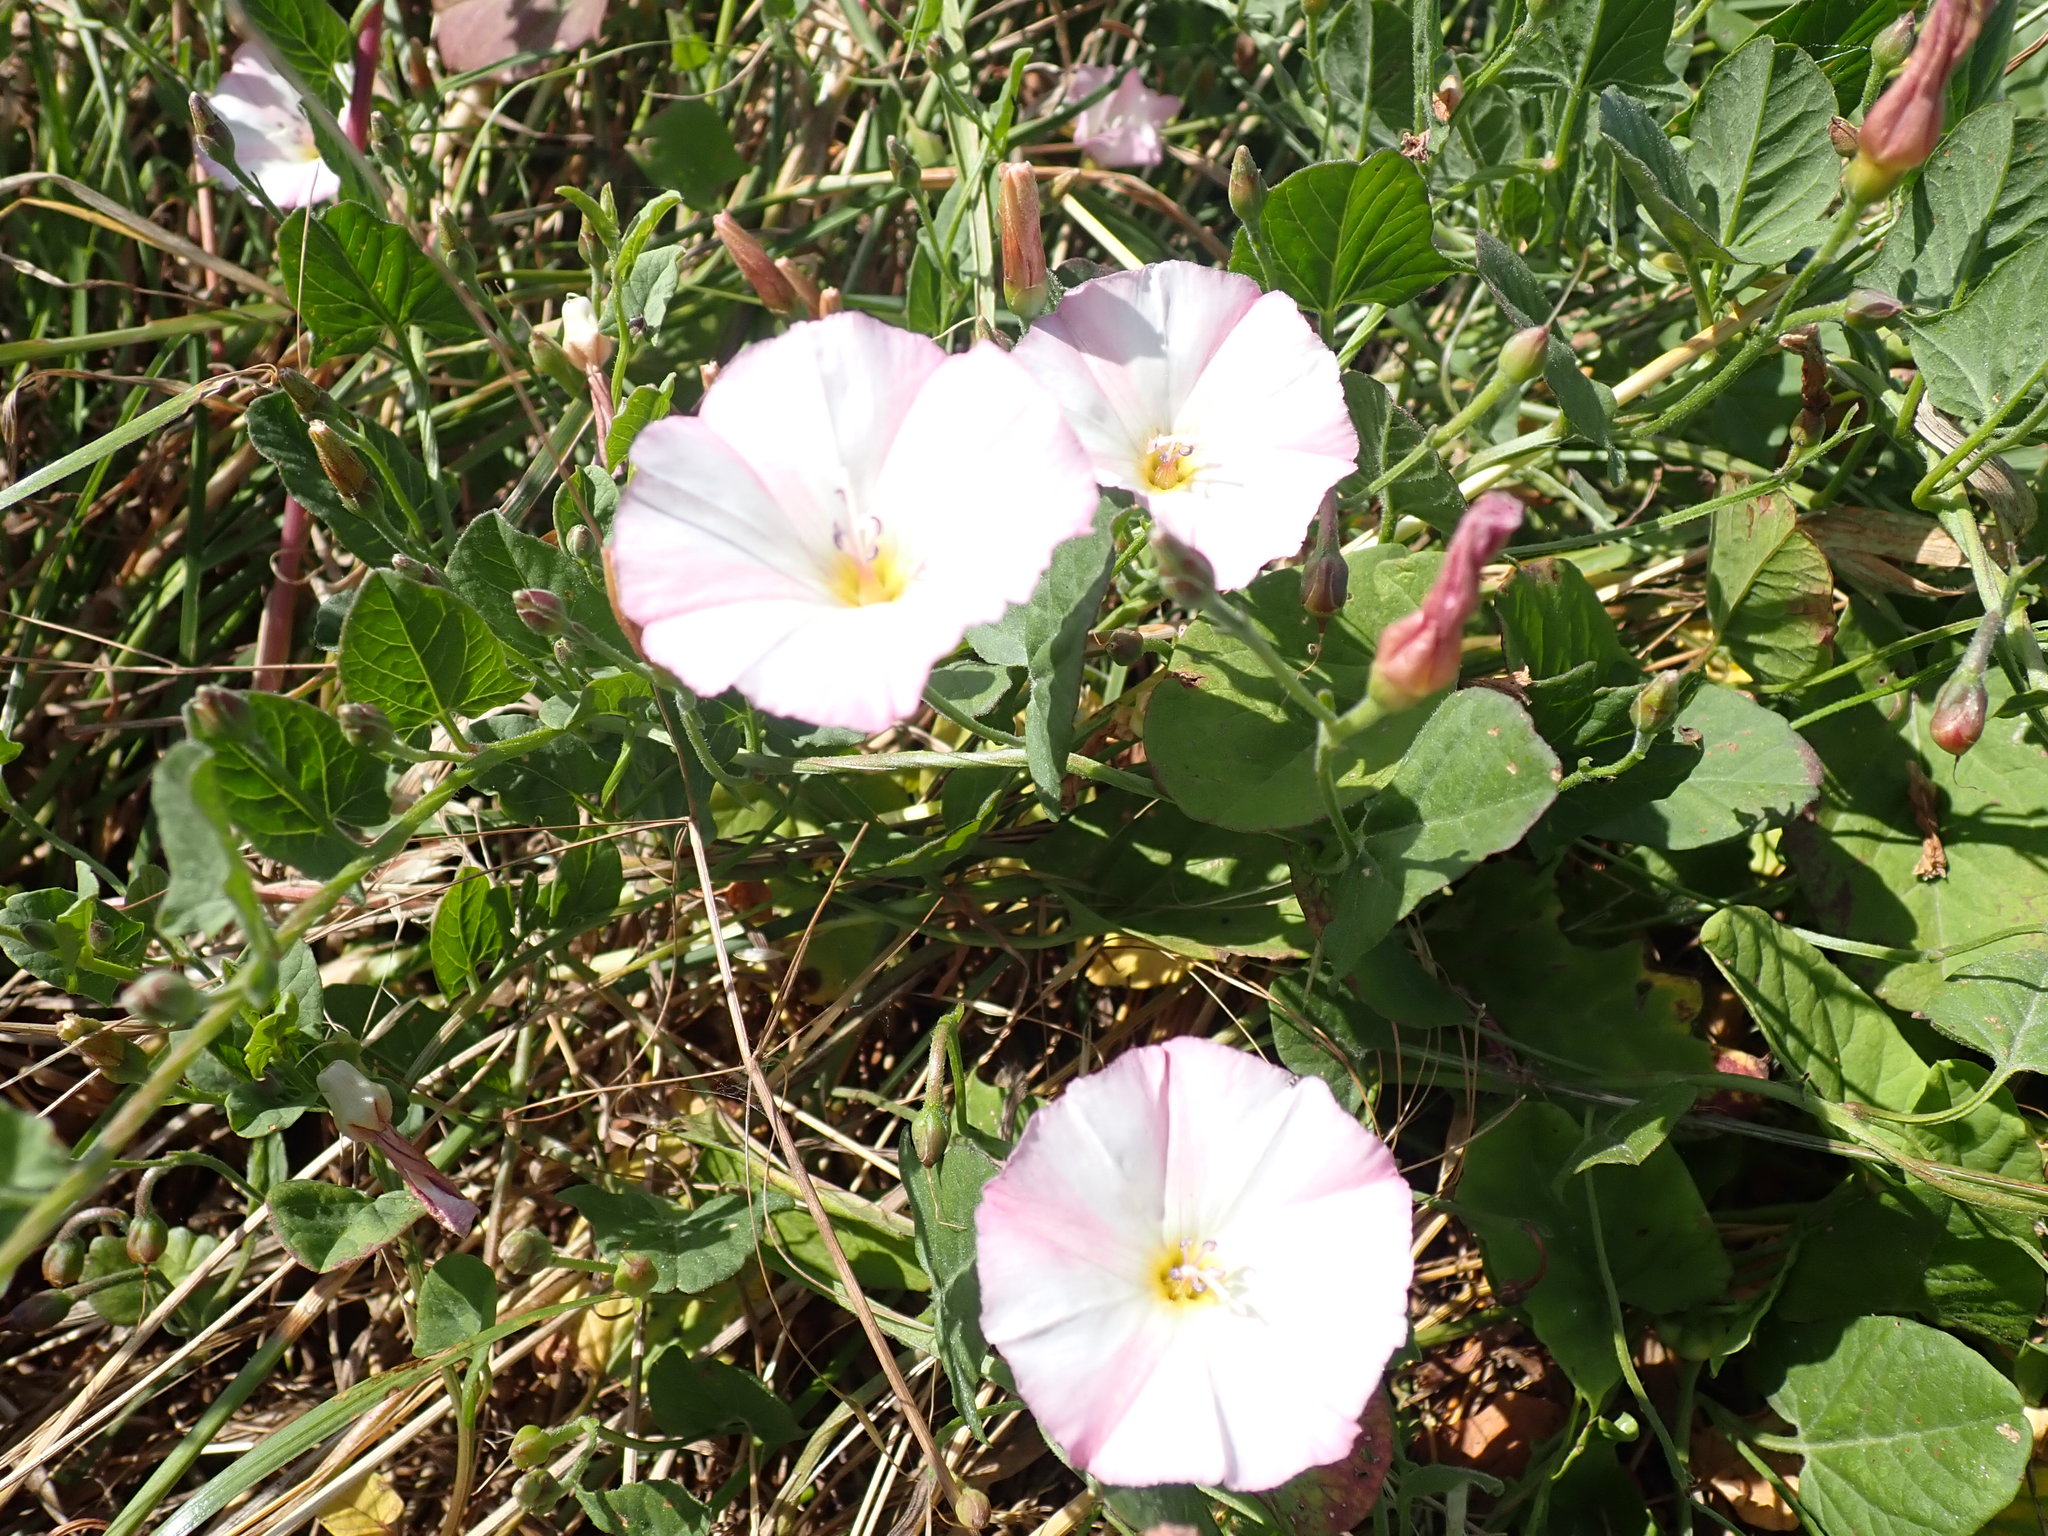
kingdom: Plantae
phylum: Tracheophyta
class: Magnoliopsida
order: Solanales
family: Convolvulaceae
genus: Convolvulus
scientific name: Convolvulus arvensis
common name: Field bindweed
